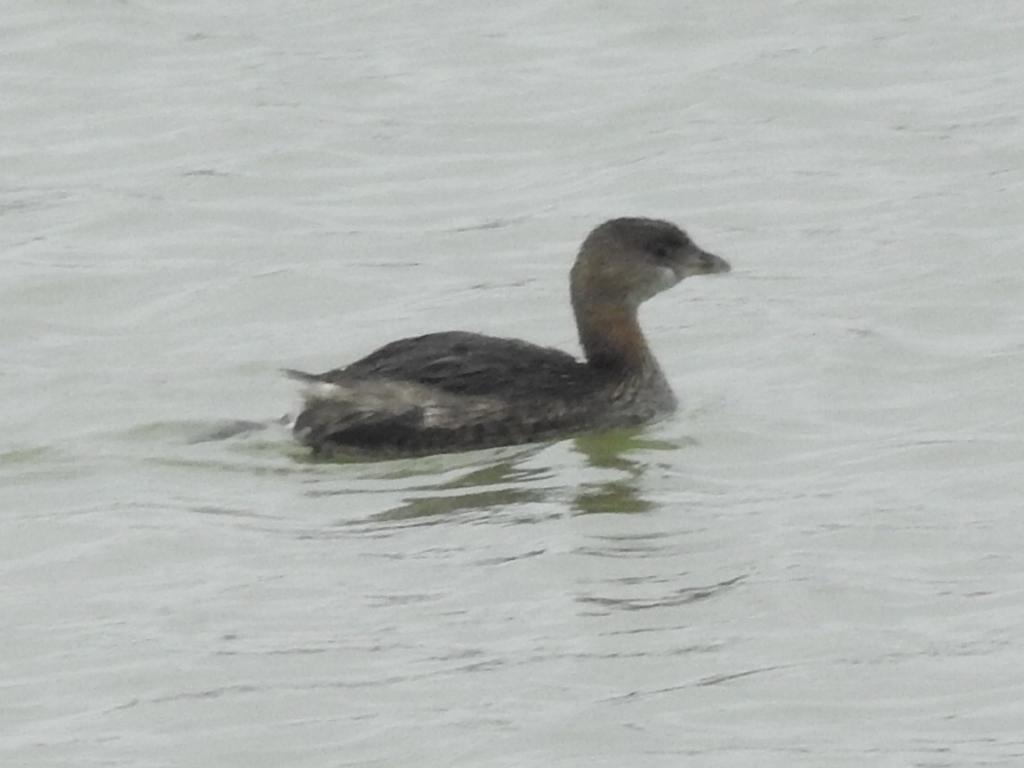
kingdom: Animalia
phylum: Chordata
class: Aves
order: Podicipediformes
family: Podicipedidae
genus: Podilymbus
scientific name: Podilymbus podiceps
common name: Pied-billed grebe
